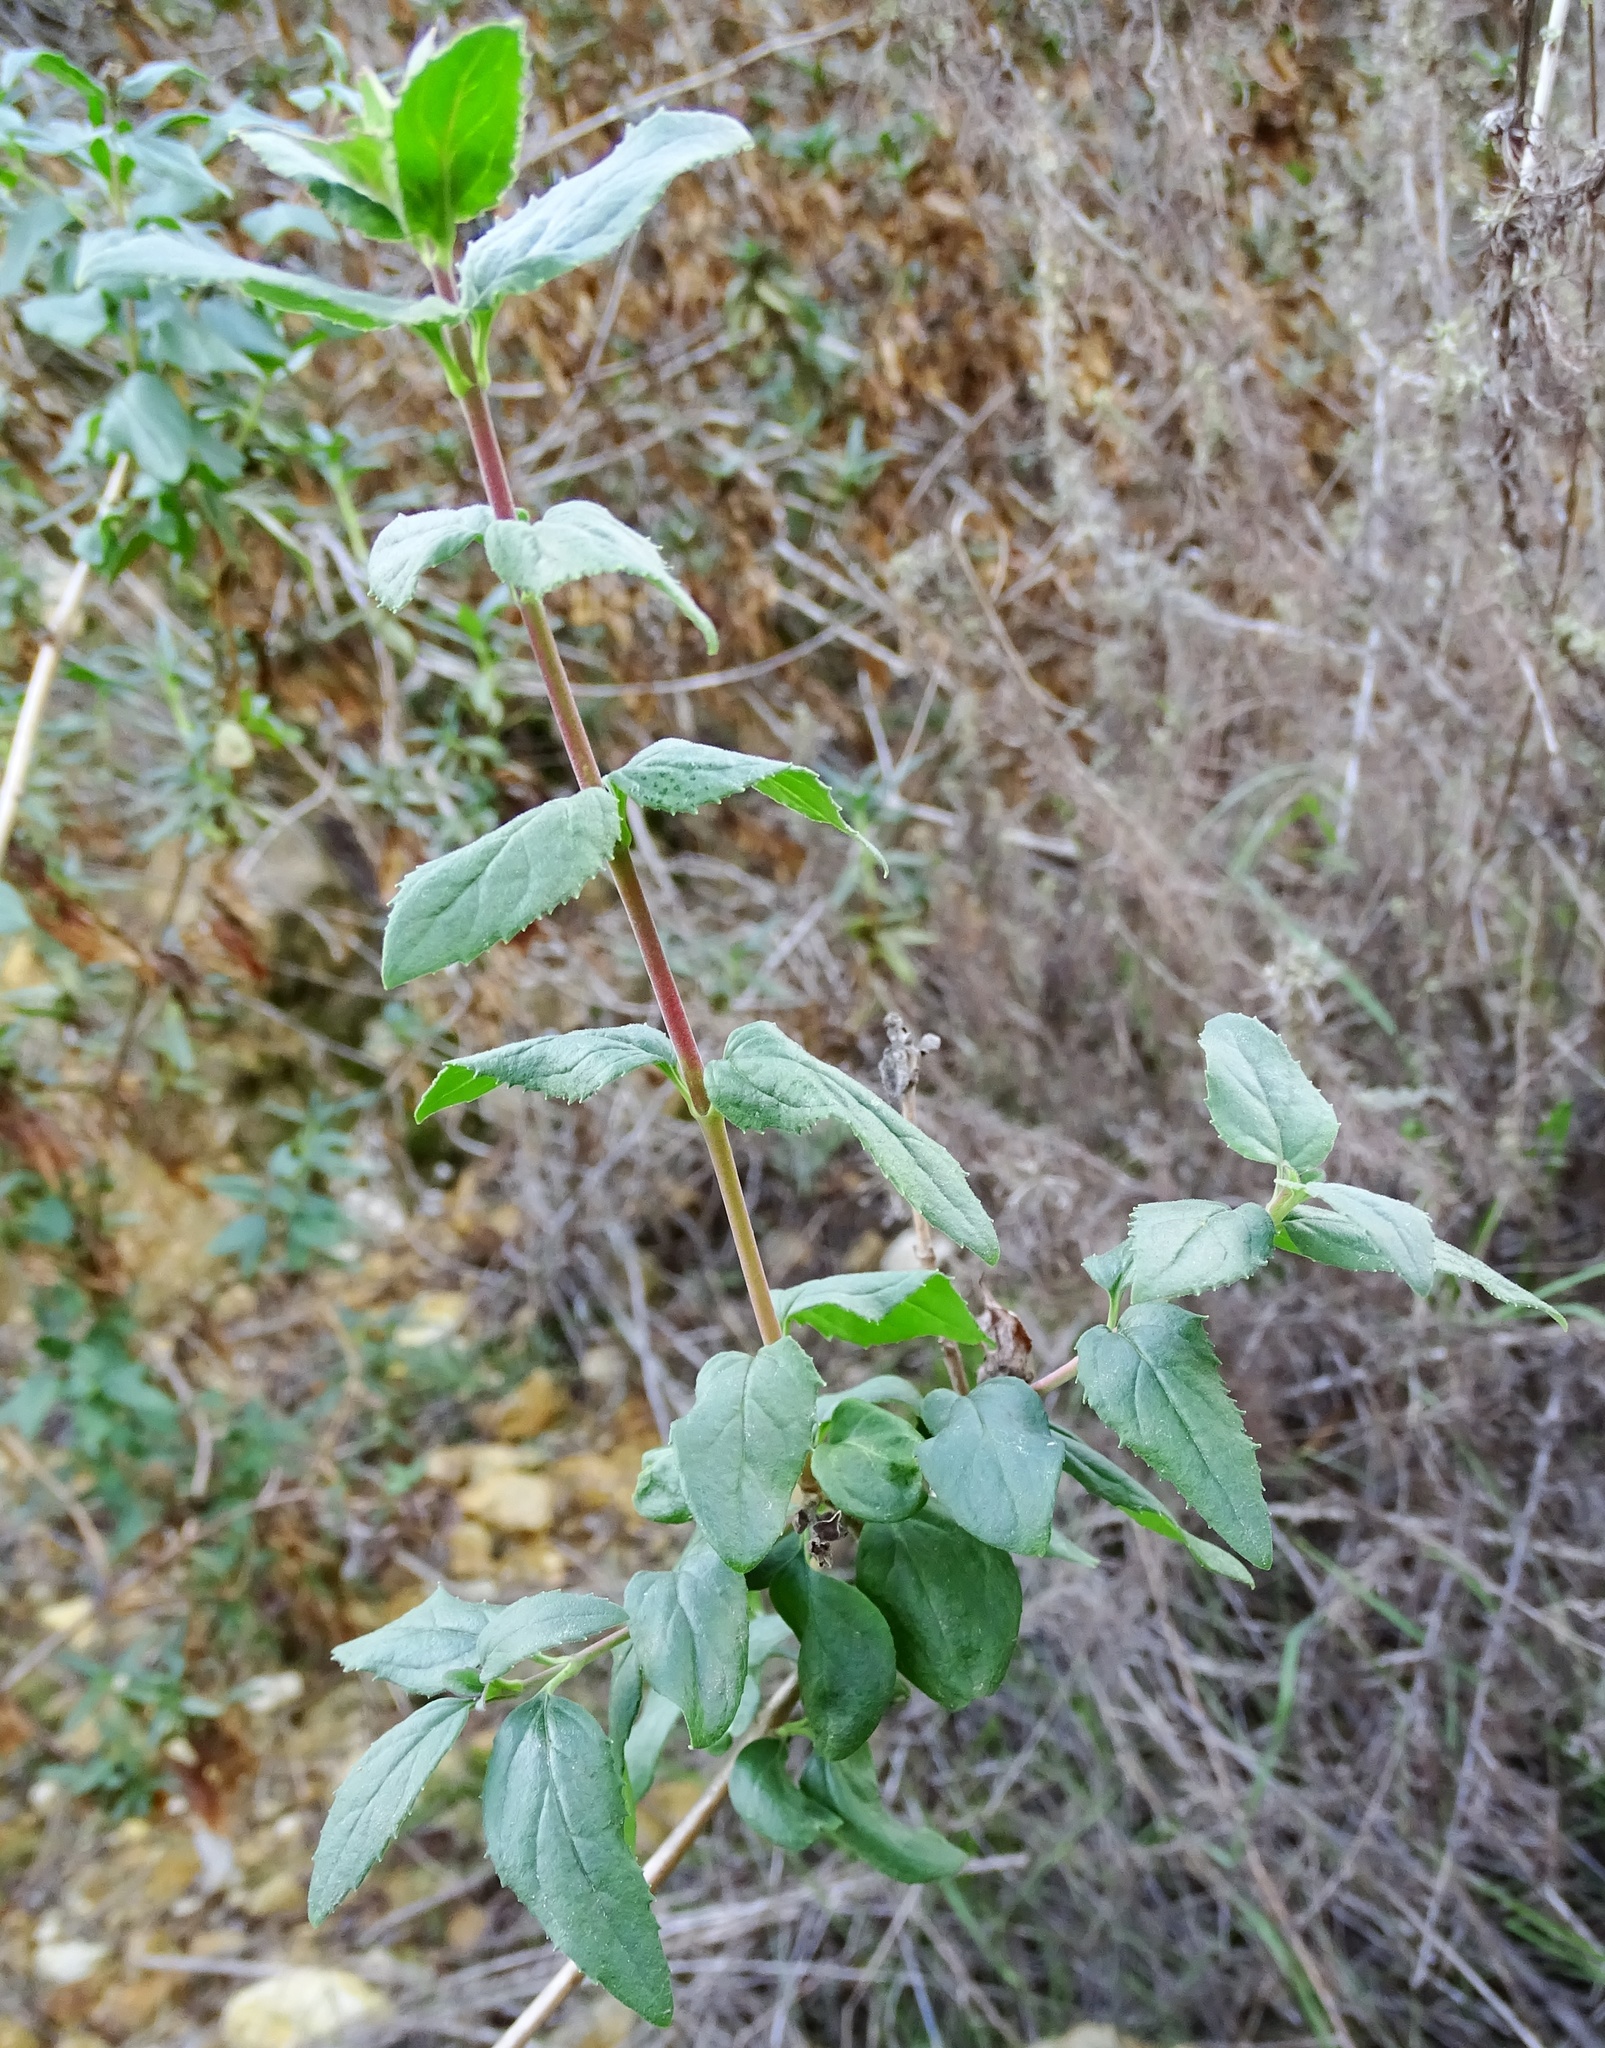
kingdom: Plantae
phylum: Tracheophyta
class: Magnoliopsida
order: Lamiales
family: Plantaginaceae
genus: Keckiella
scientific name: Keckiella cordifolia
